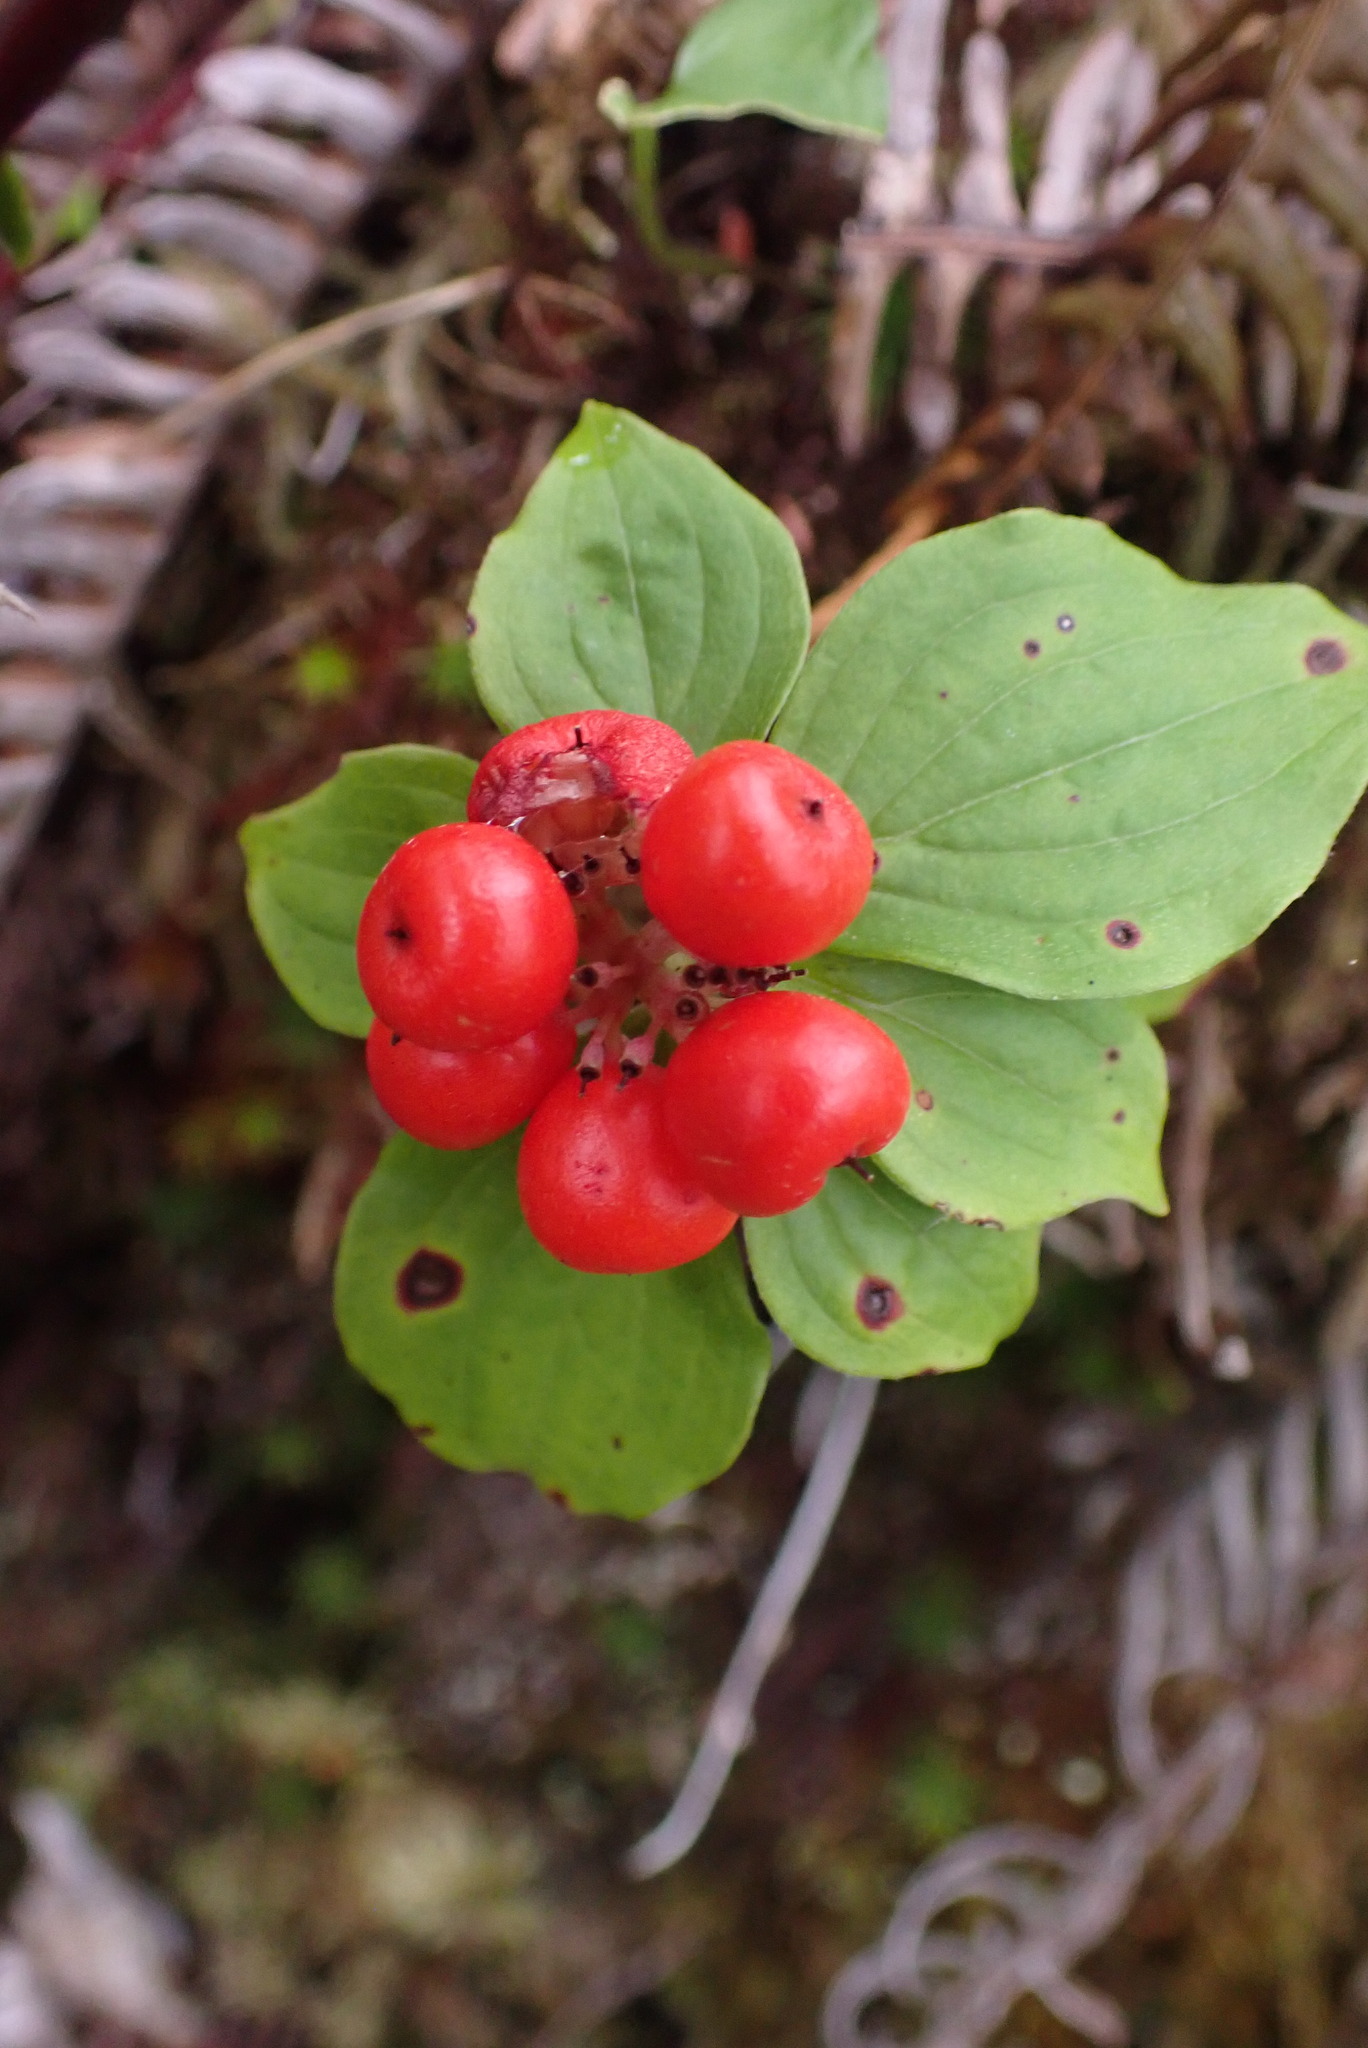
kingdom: Plantae
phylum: Tracheophyta
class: Magnoliopsida
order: Cornales
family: Cornaceae
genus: Cornus
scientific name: Cornus unalaschkensis
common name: Alaska bunchberry
